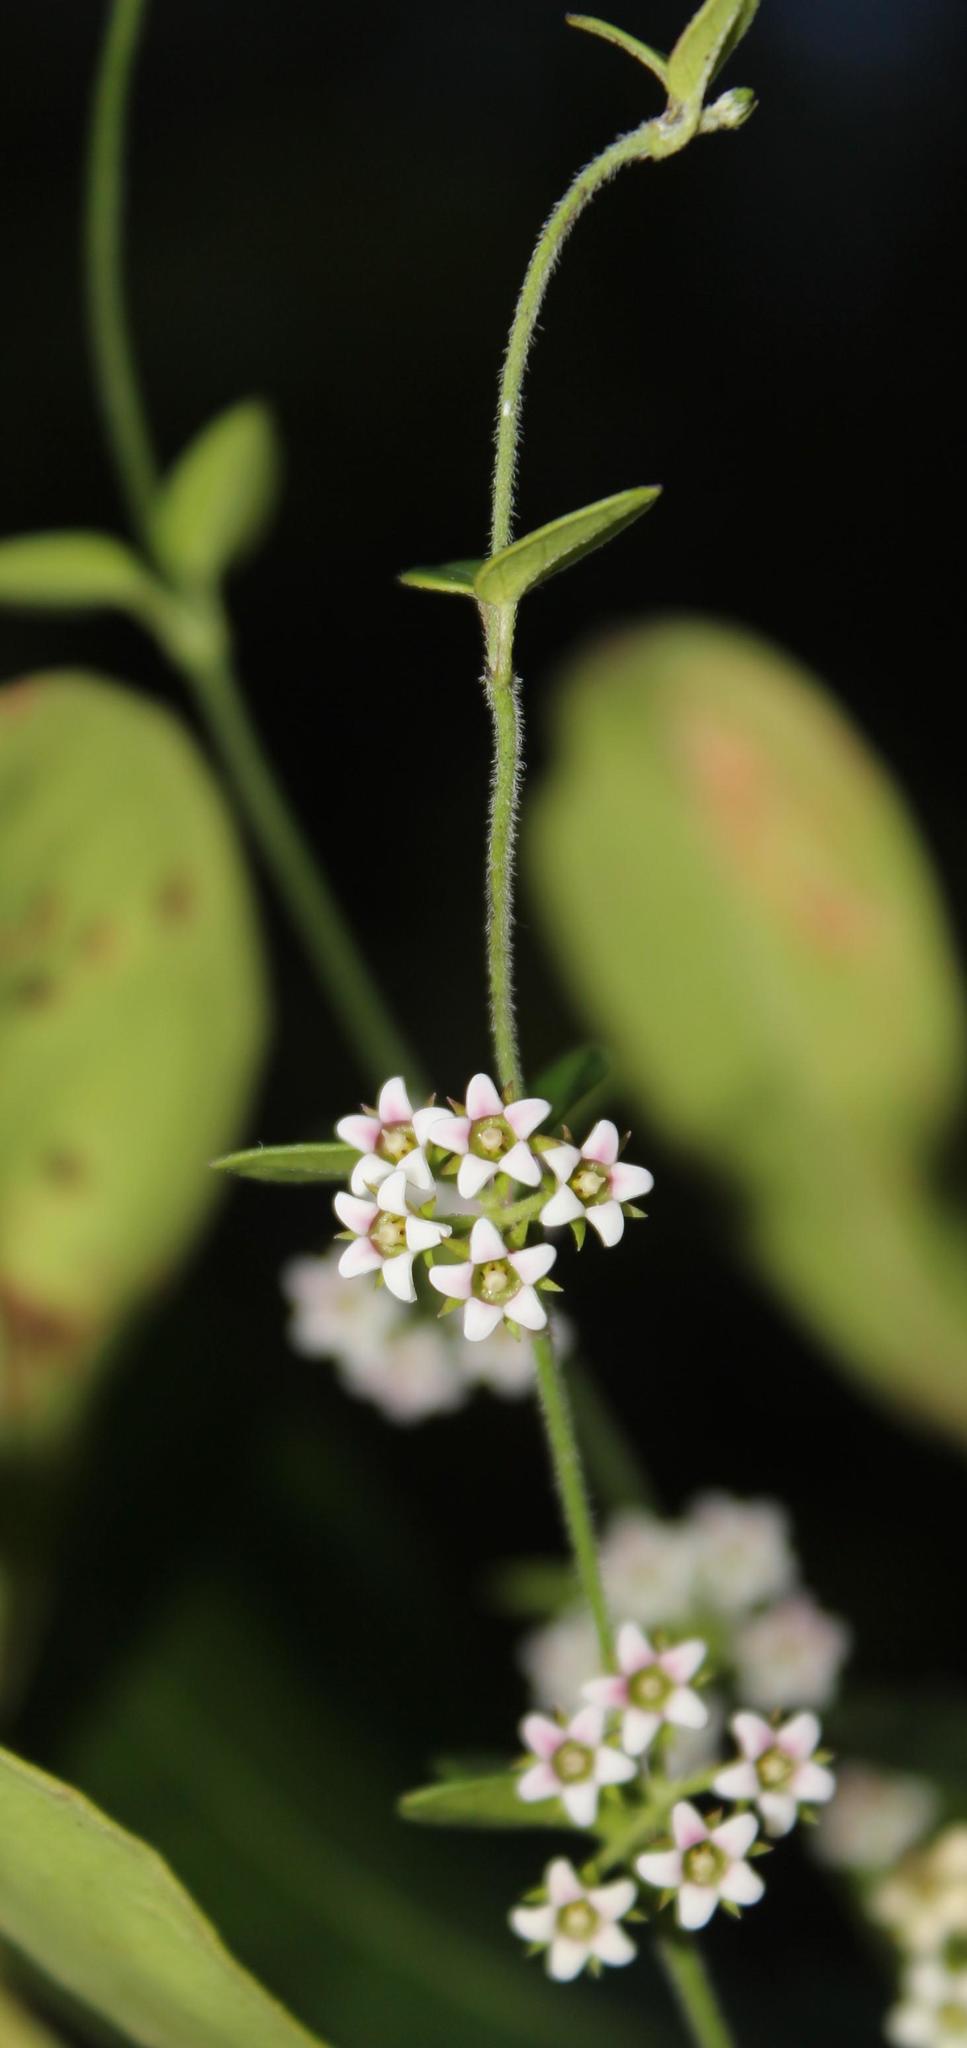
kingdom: Plantae
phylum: Tracheophyta
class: Magnoliopsida
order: Gentianales
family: Apocynaceae
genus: Astephanus
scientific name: Astephanus triflorus
